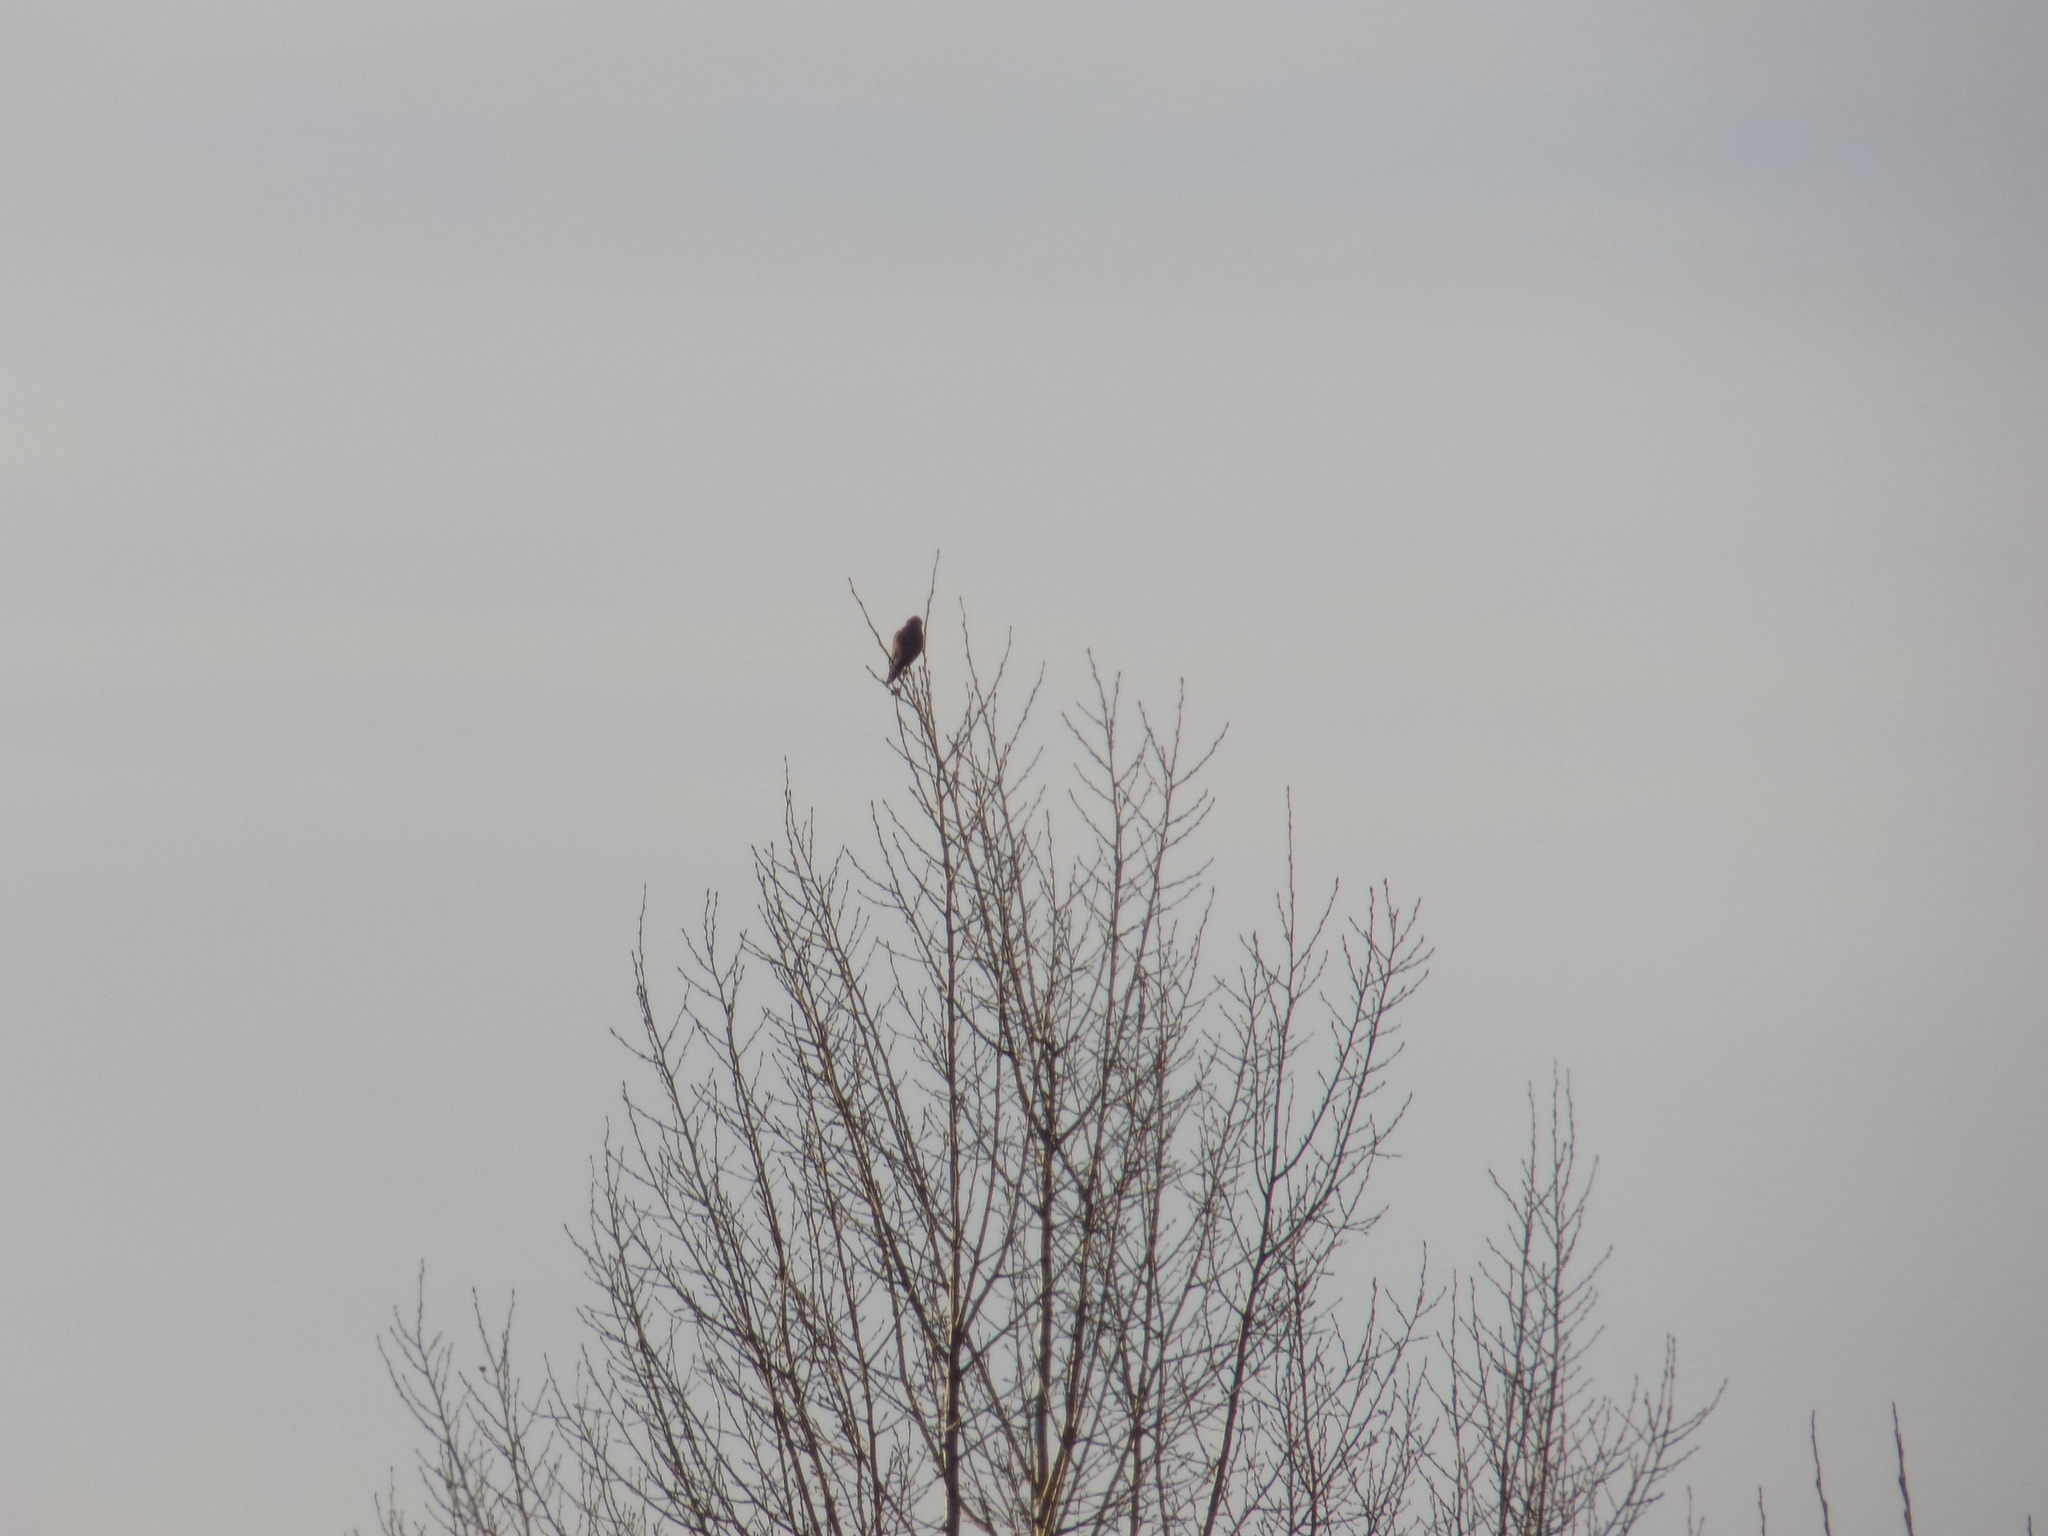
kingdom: Animalia
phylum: Chordata
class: Aves
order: Falconiformes
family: Falconidae
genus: Falco
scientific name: Falco tinnunculus
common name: Common kestrel
